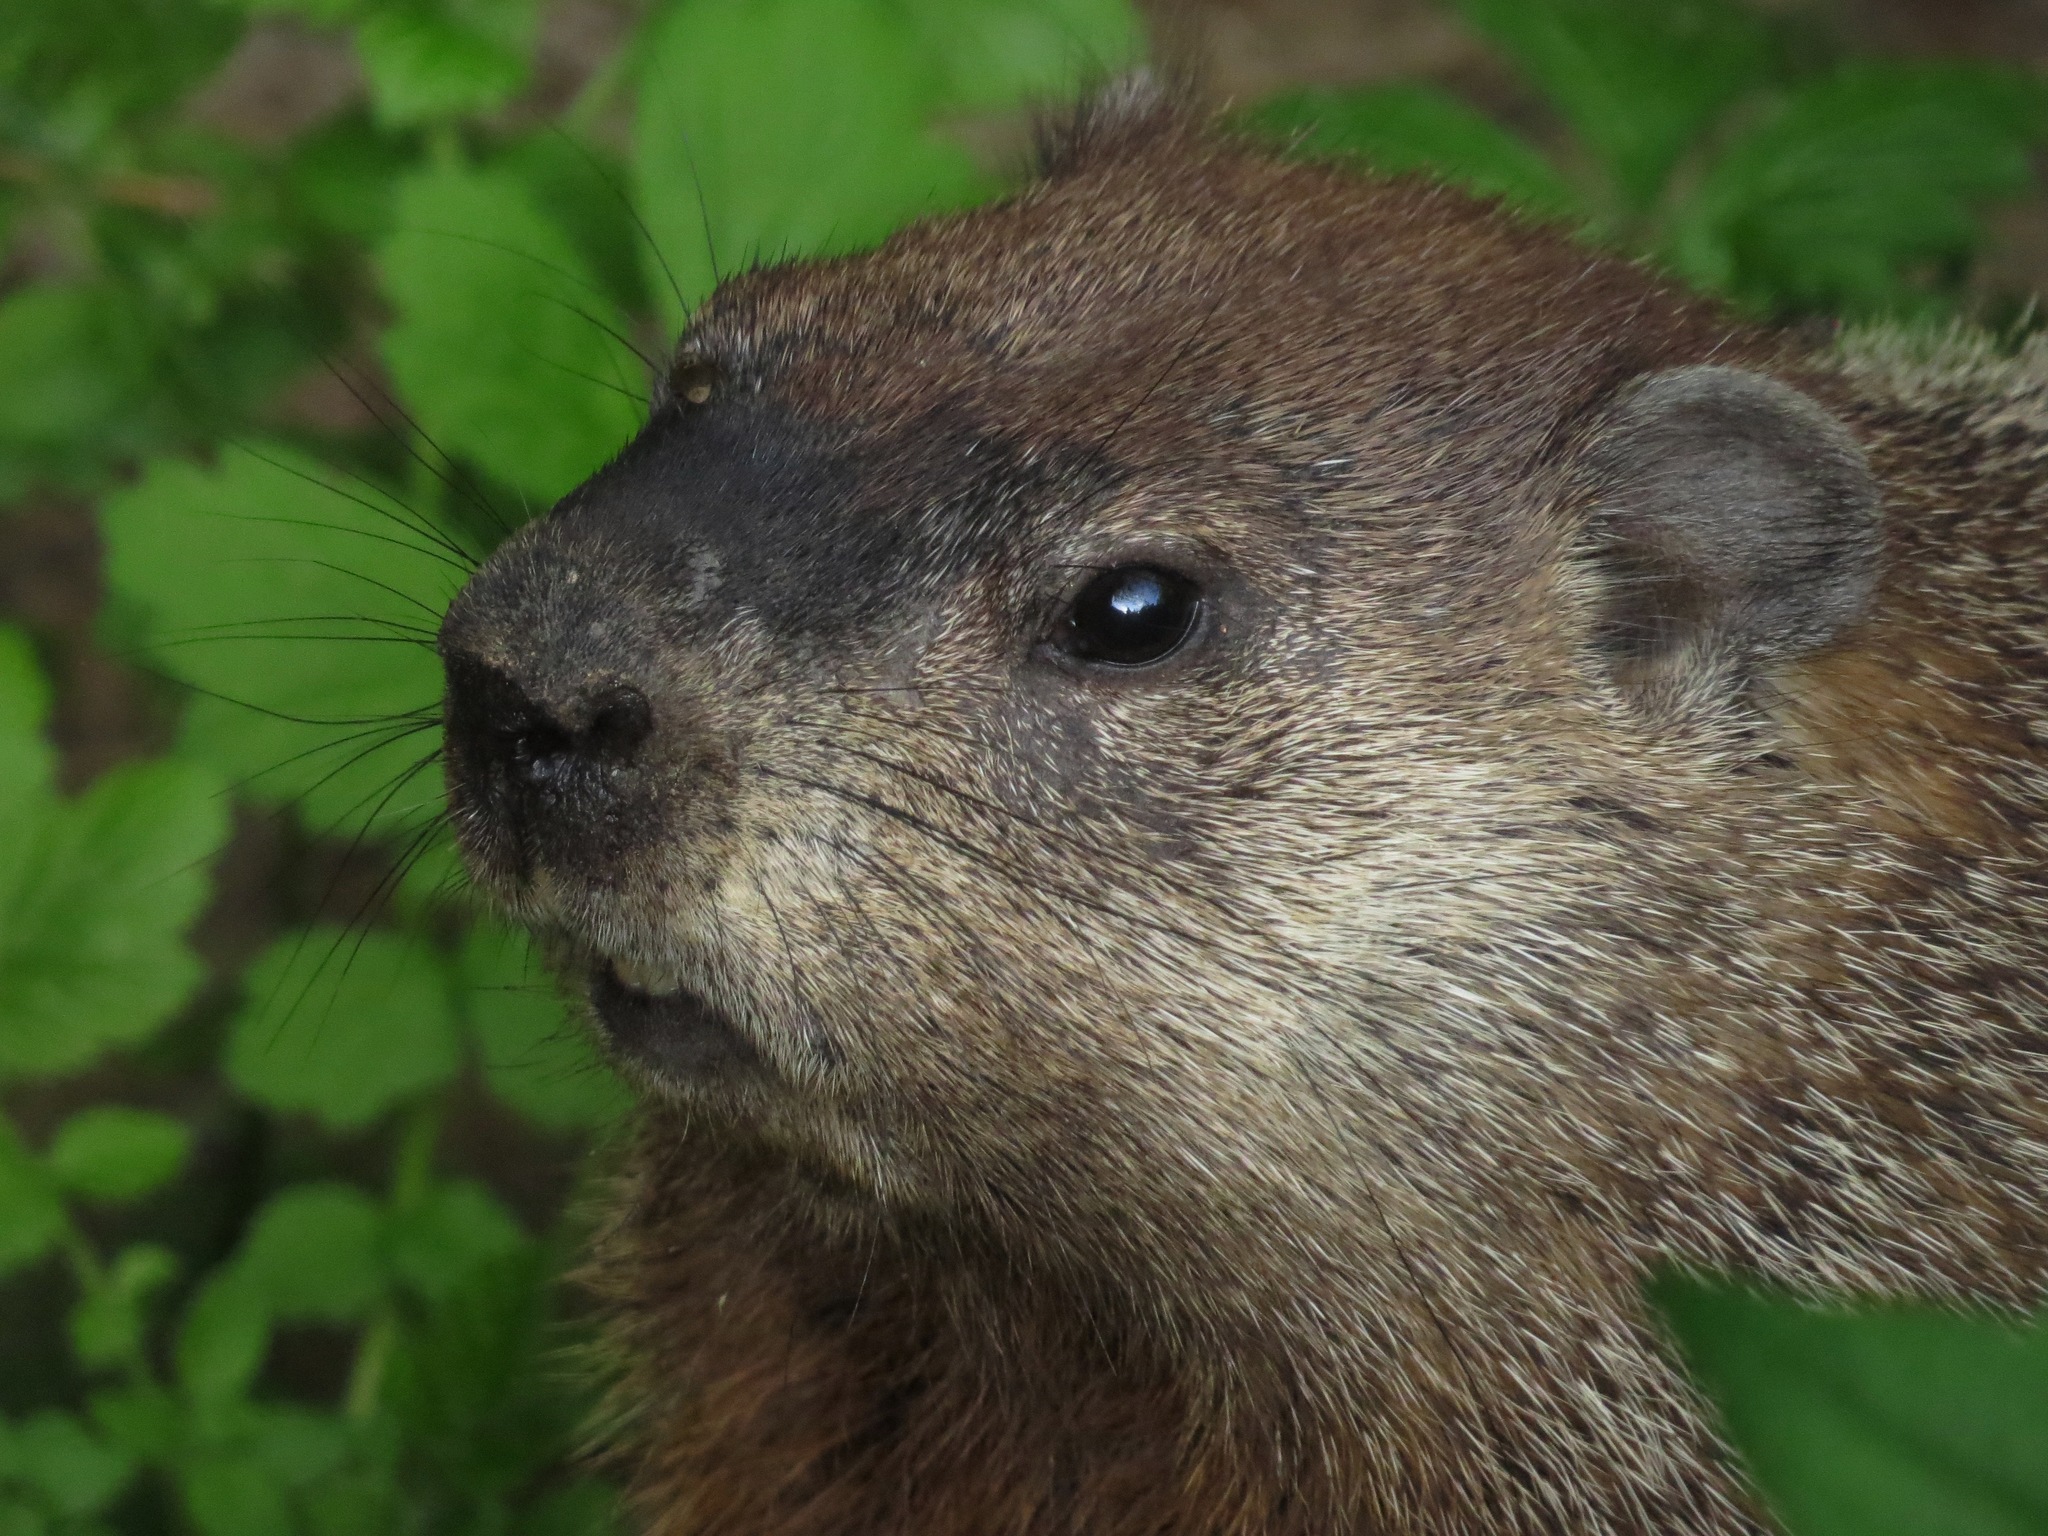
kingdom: Animalia
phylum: Chordata
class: Mammalia
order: Rodentia
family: Sciuridae
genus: Marmota
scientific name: Marmota monax
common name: Groundhog
